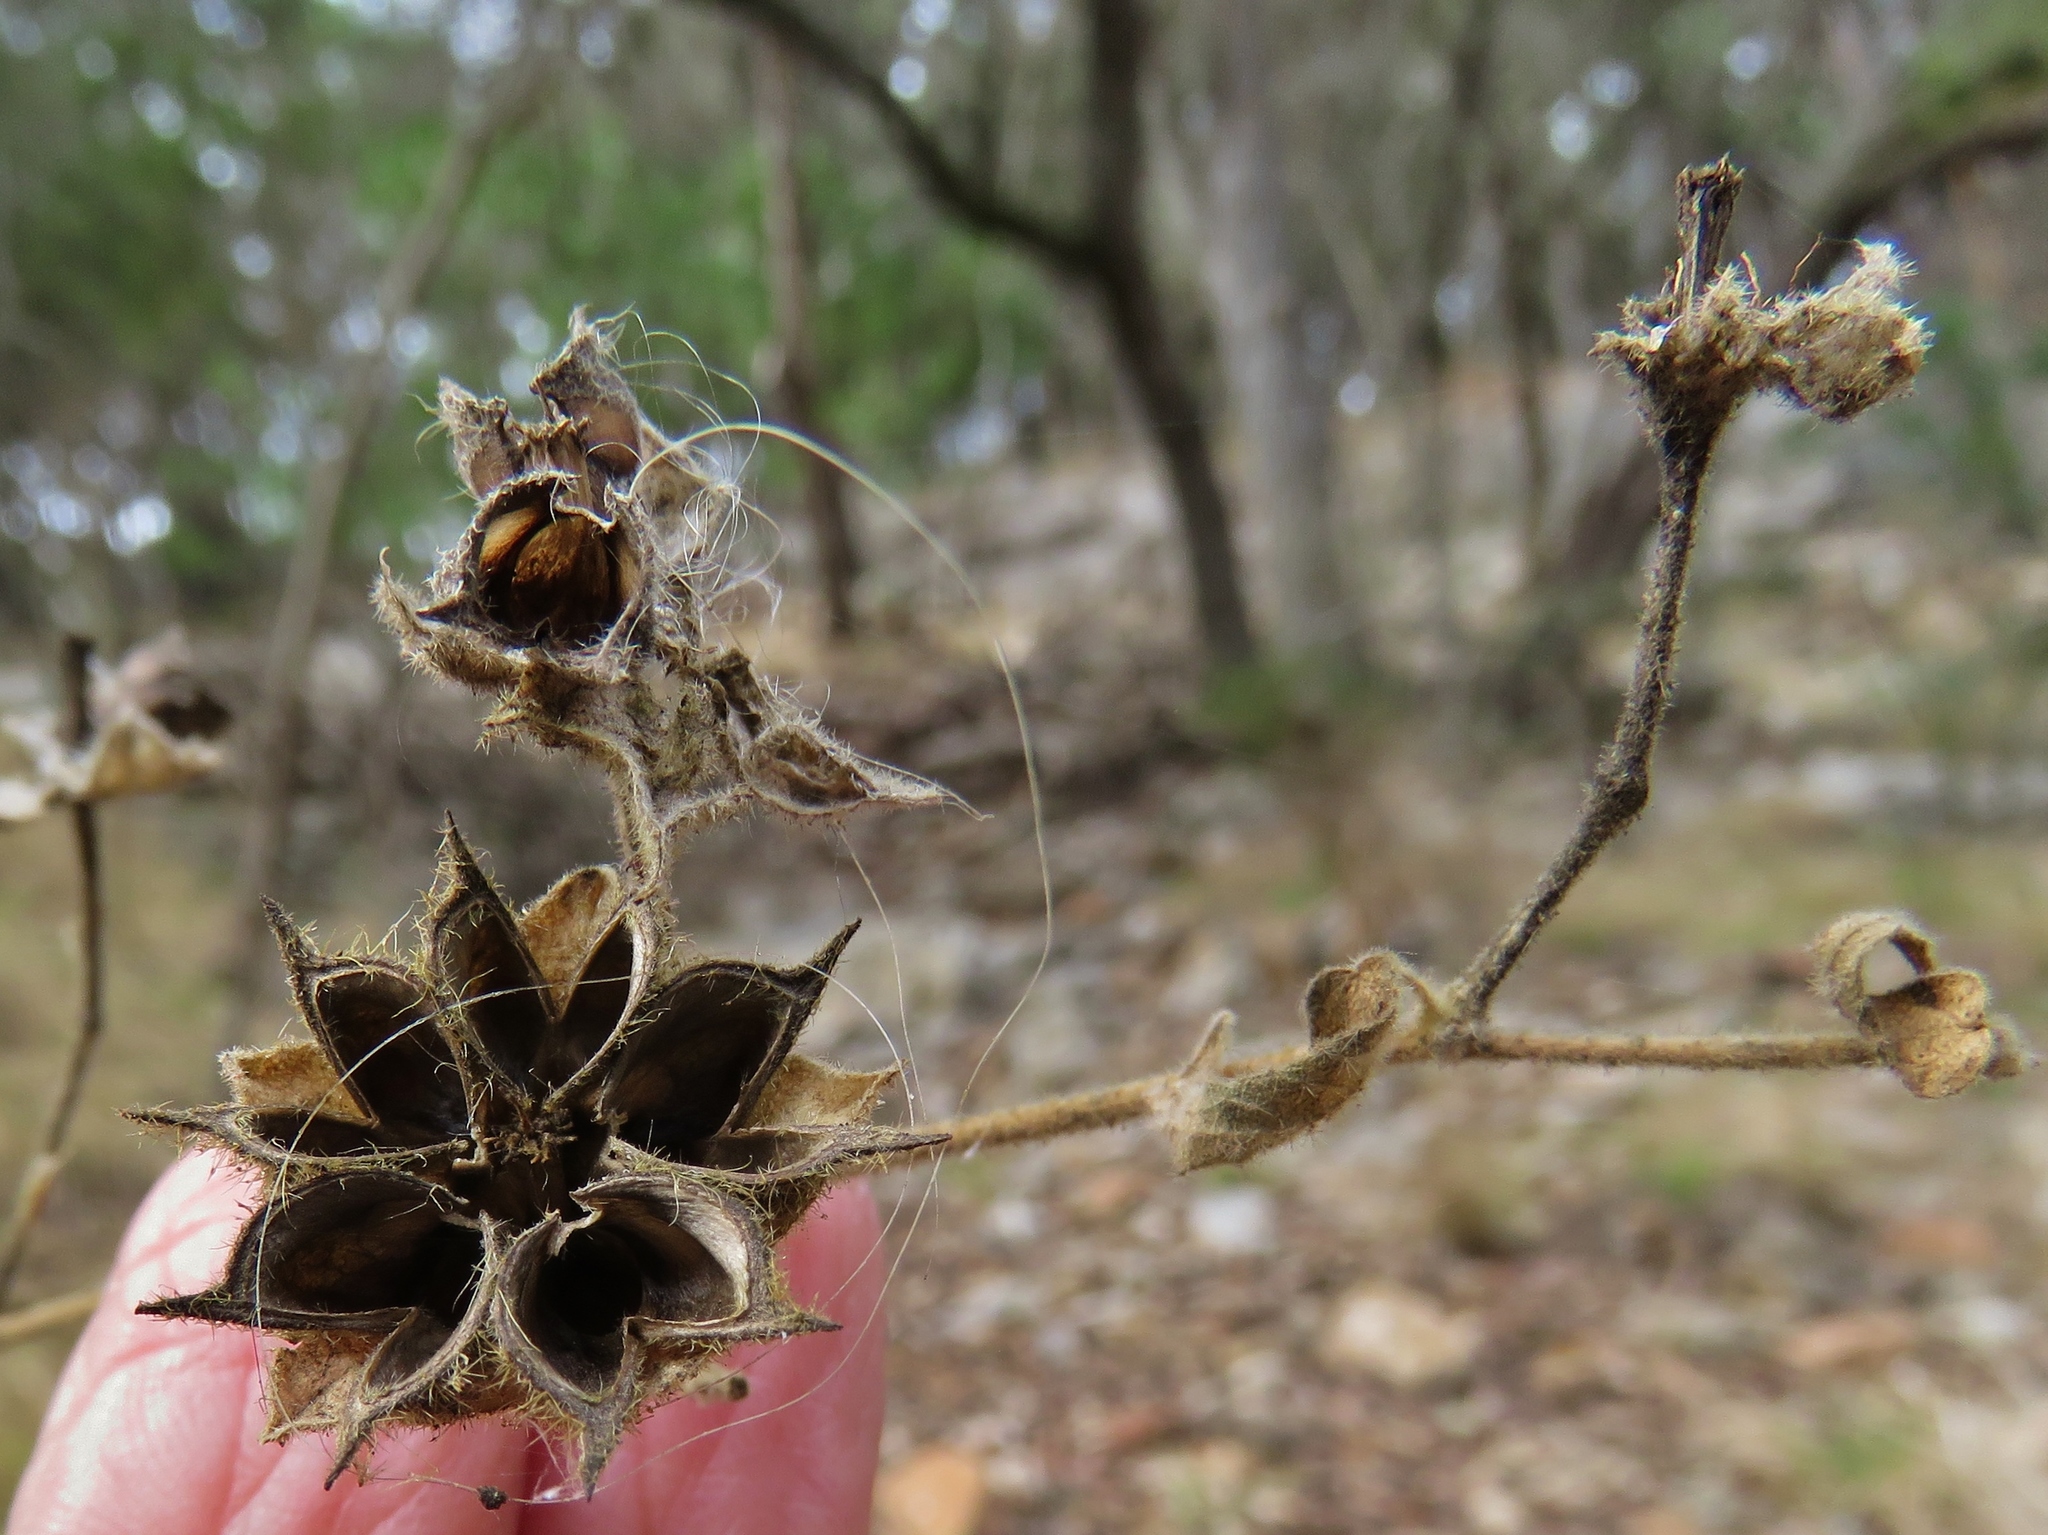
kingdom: Plantae
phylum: Tracheophyta
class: Magnoliopsida
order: Malvales
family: Malvaceae
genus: Allowissadula
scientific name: Allowissadula holosericea
